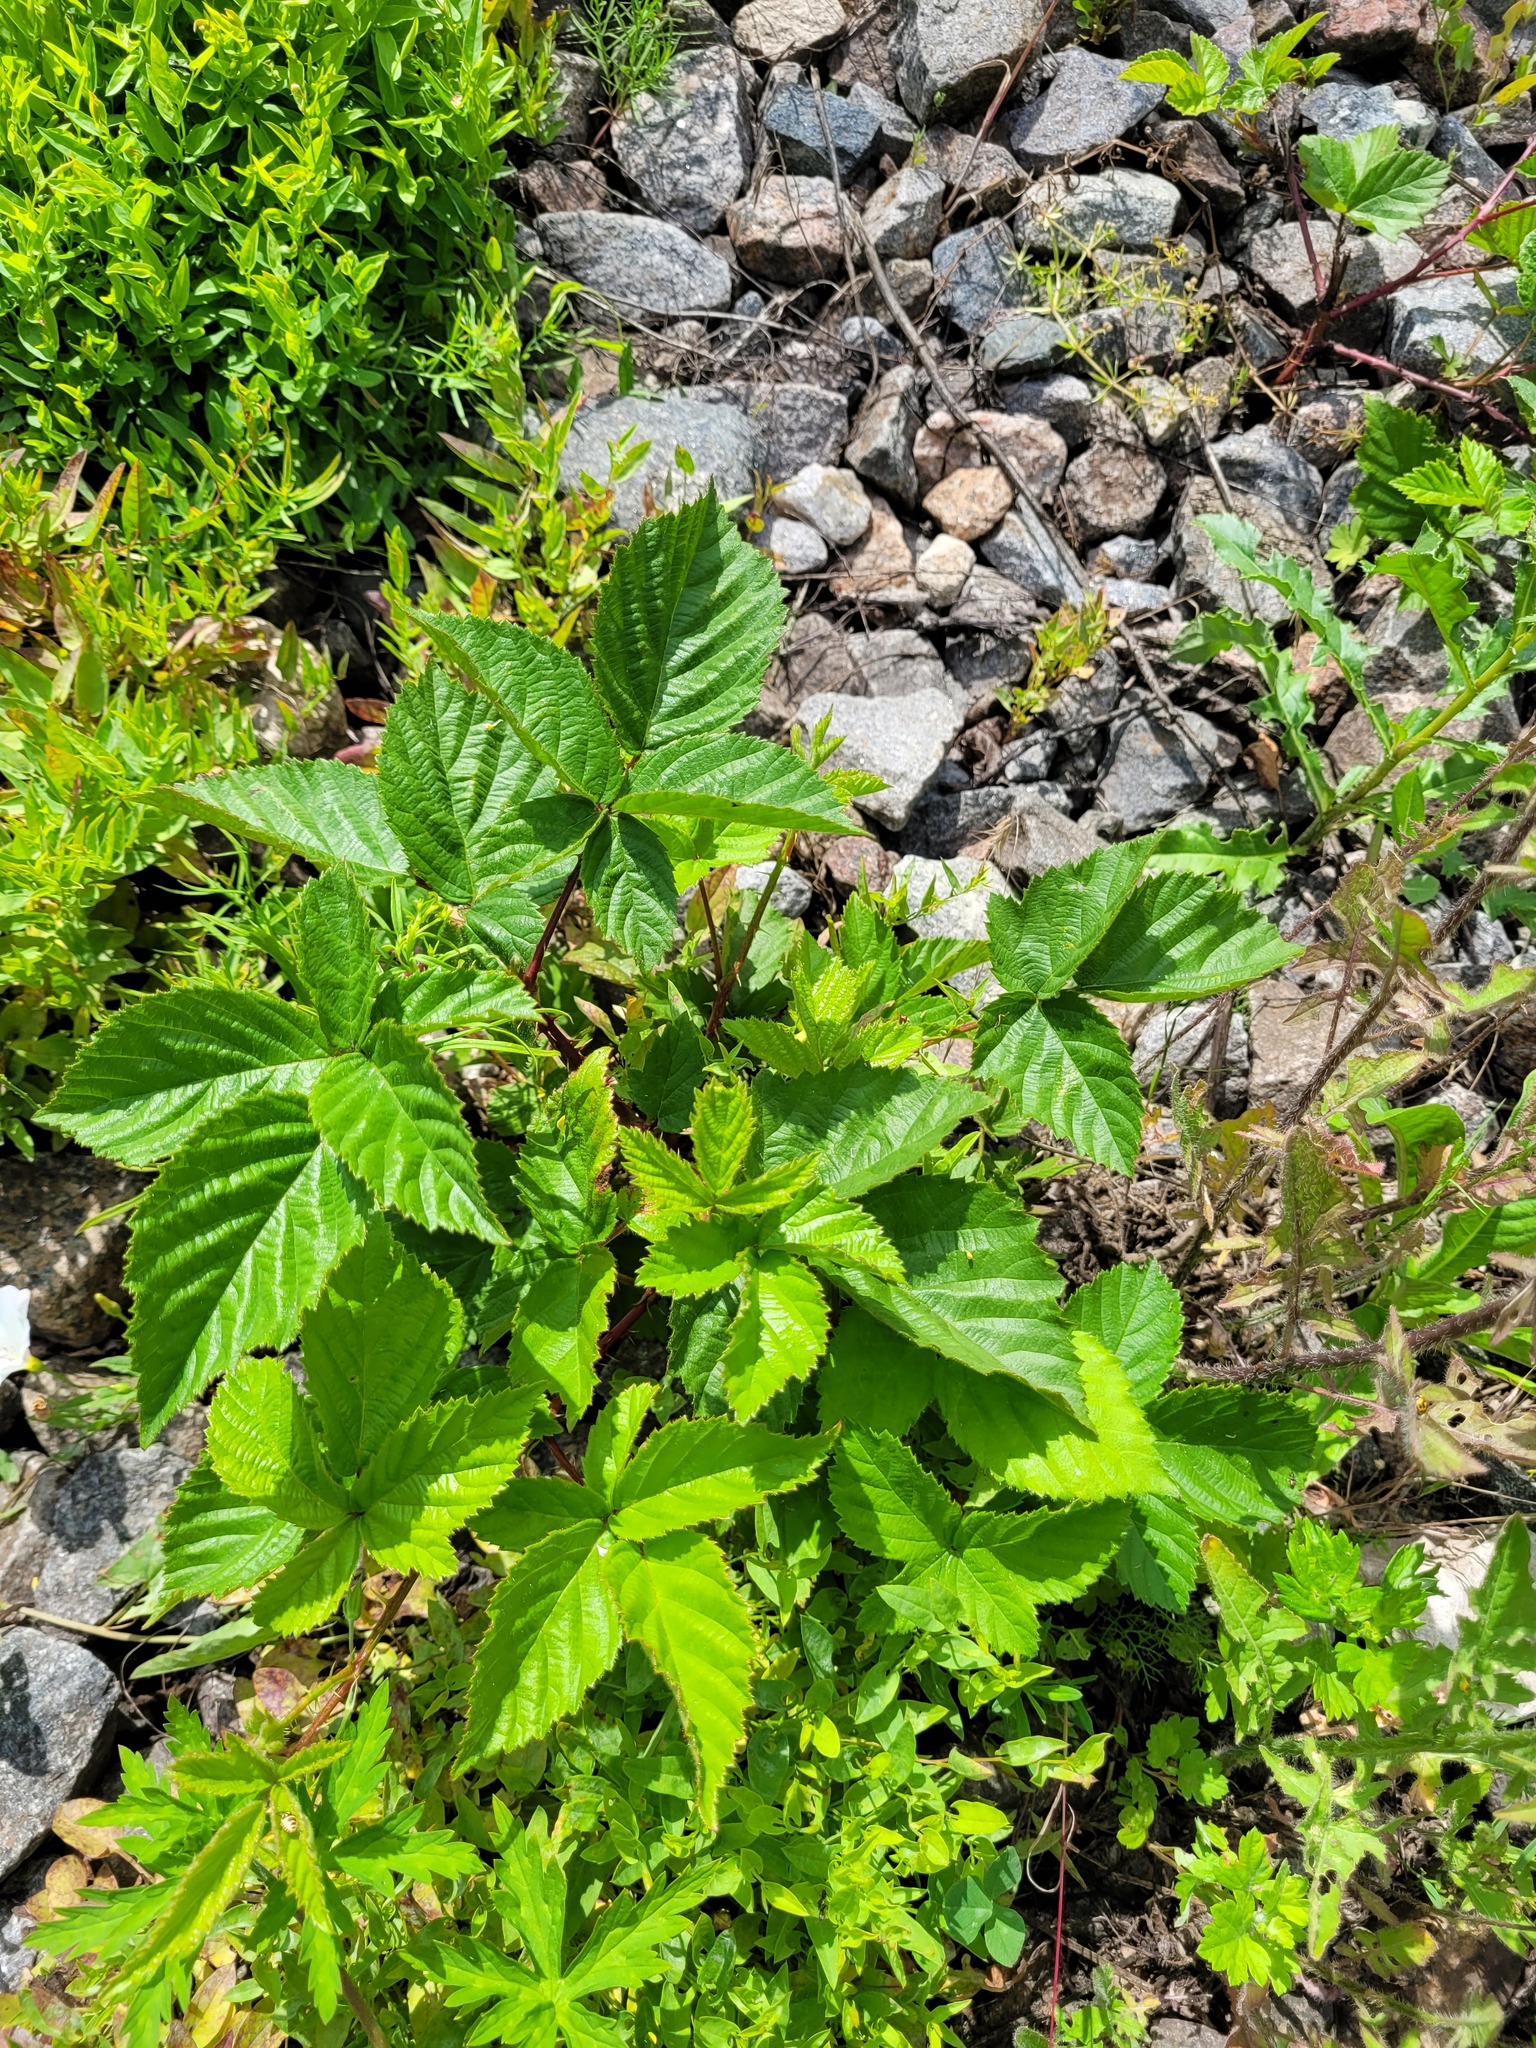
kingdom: Plantae
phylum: Tracheophyta
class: Magnoliopsida
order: Rosales
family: Rosaceae
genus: Rubus
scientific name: Rubus polonicus
